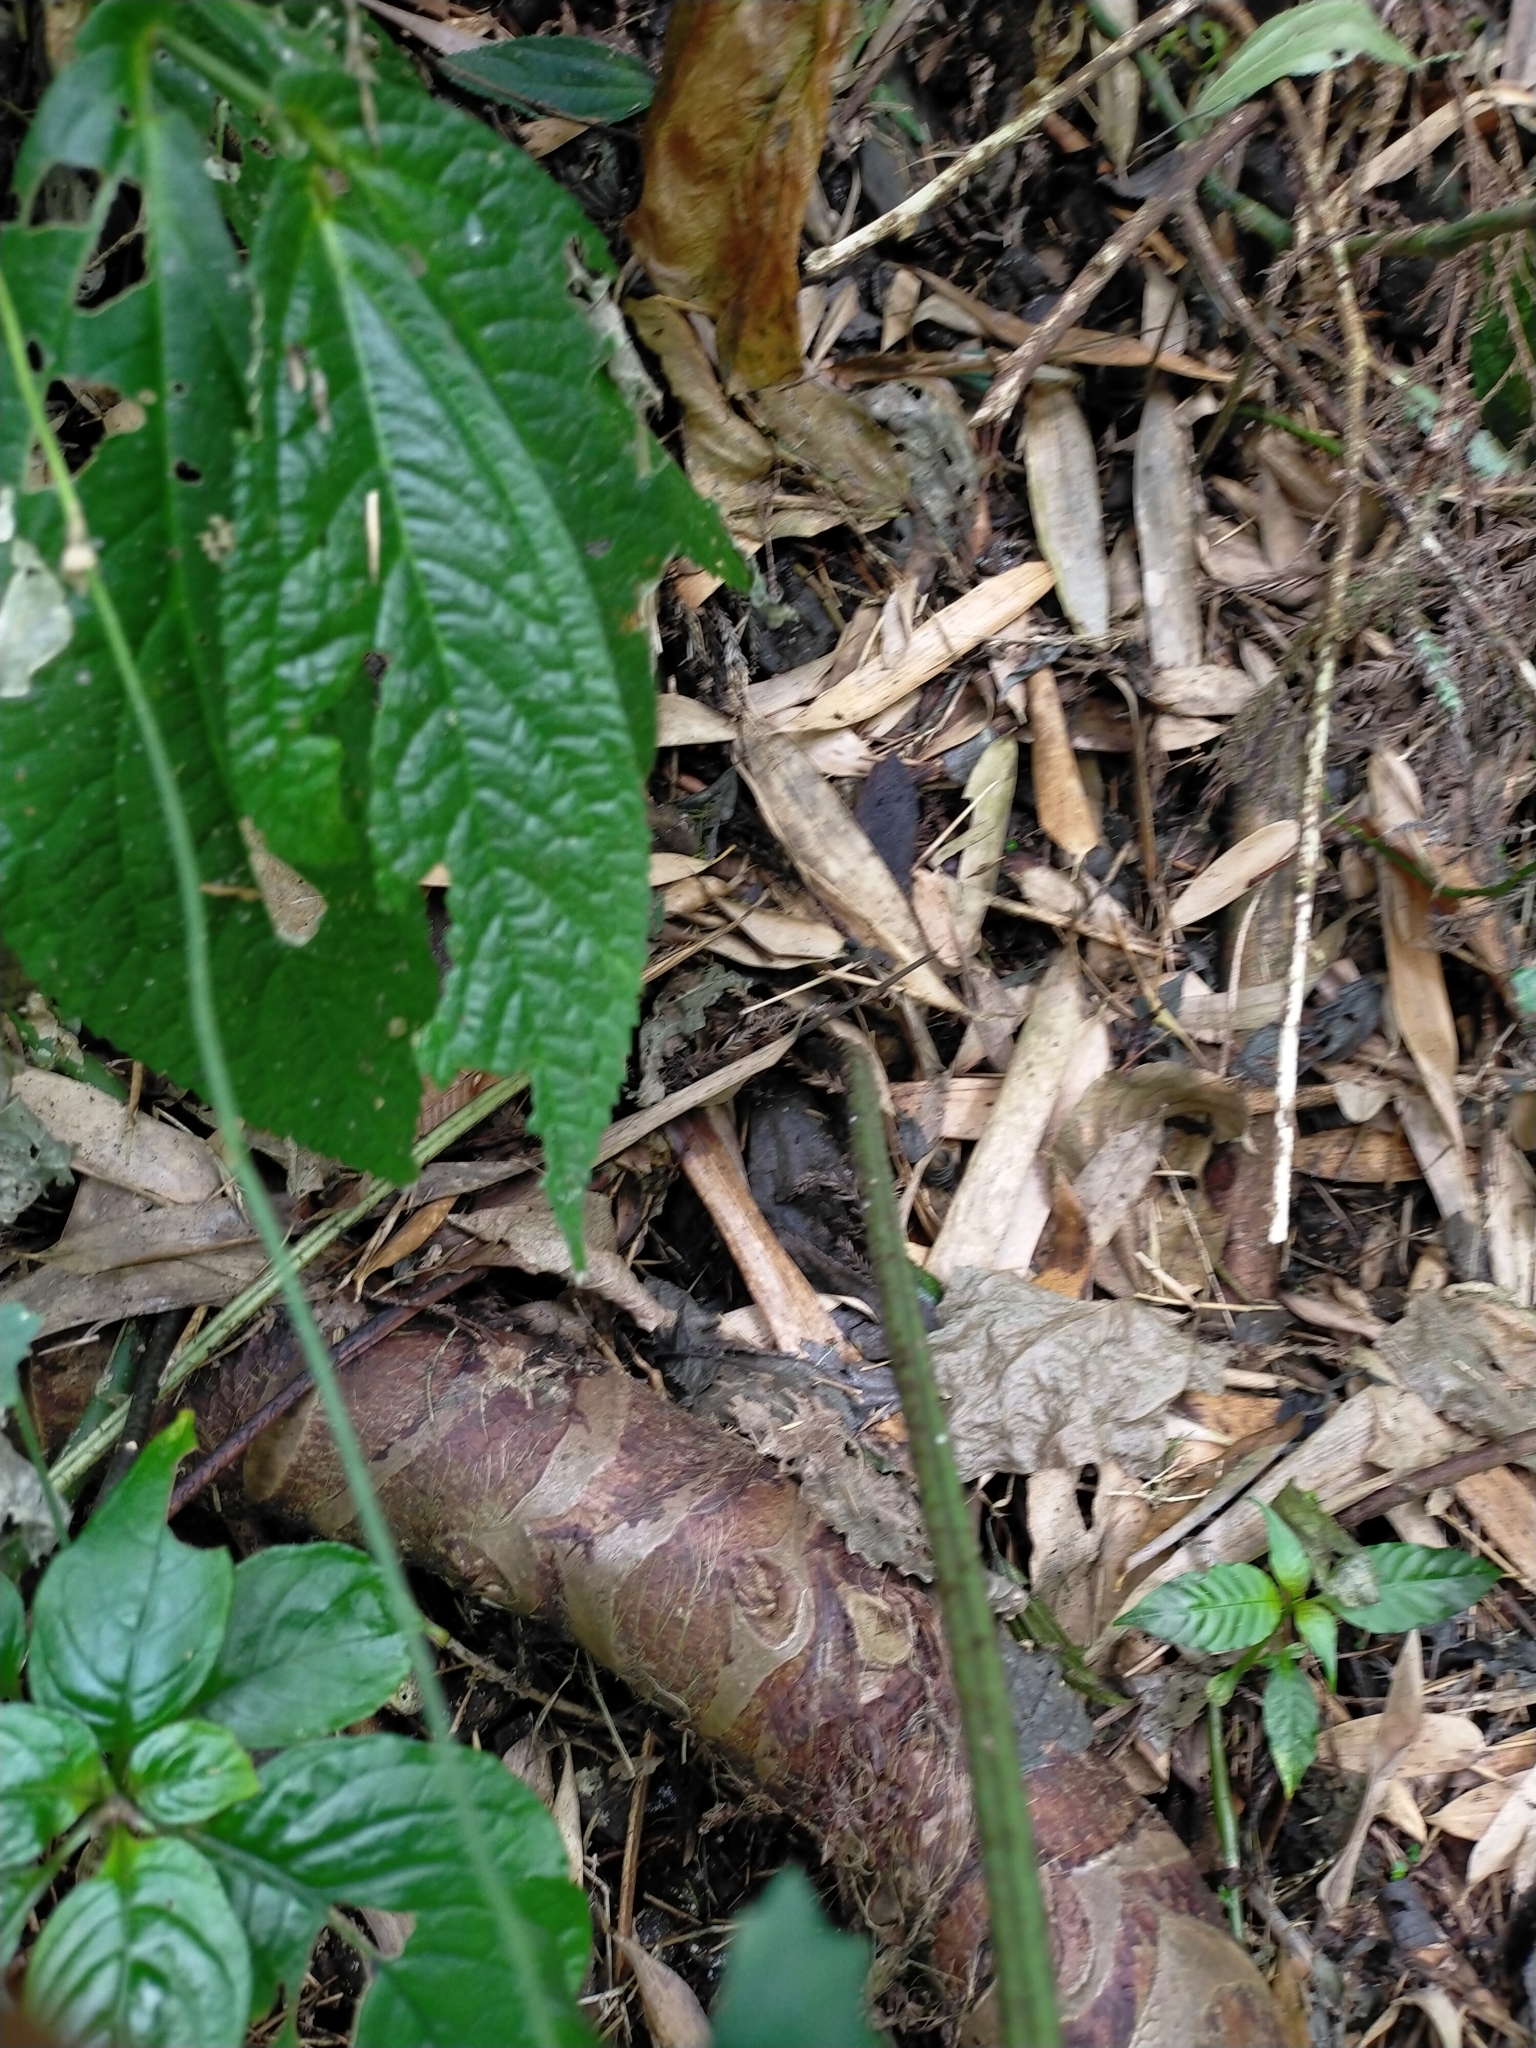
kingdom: Plantae
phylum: Tracheophyta
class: Polypodiopsida
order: Polypodiales
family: Dryopteridaceae
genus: Dryopteris
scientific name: Dryopteris scottii
